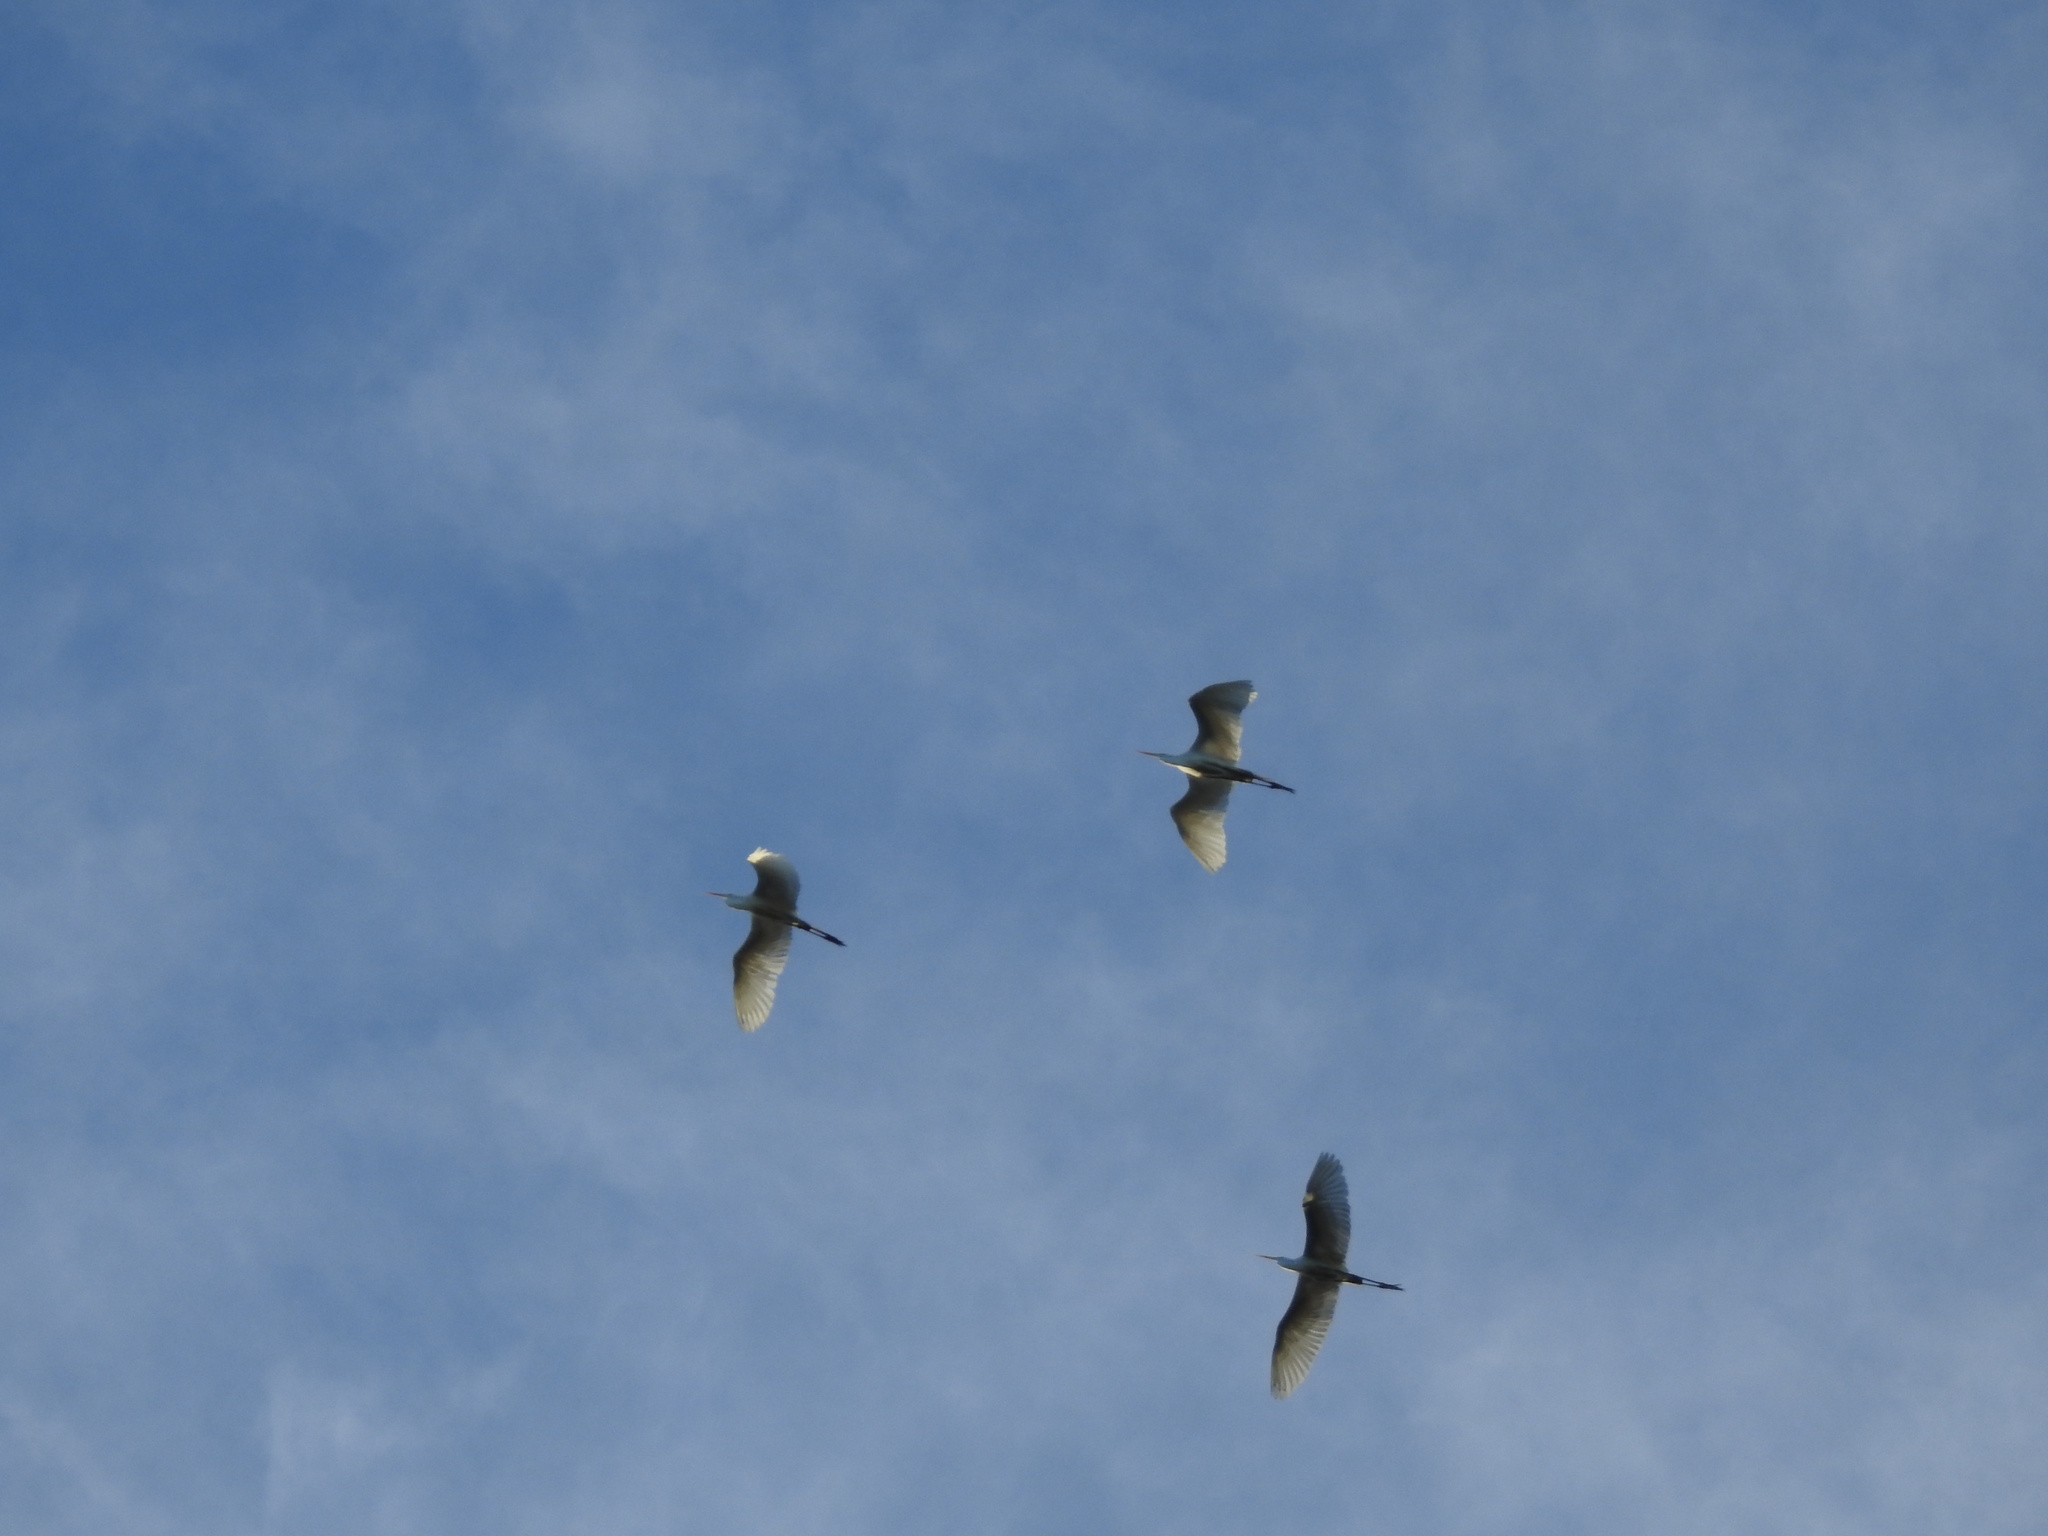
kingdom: Animalia
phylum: Chordata
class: Aves
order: Pelecaniformes
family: Ardeidae
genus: Ardea
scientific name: Ardea alba
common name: Great egret
